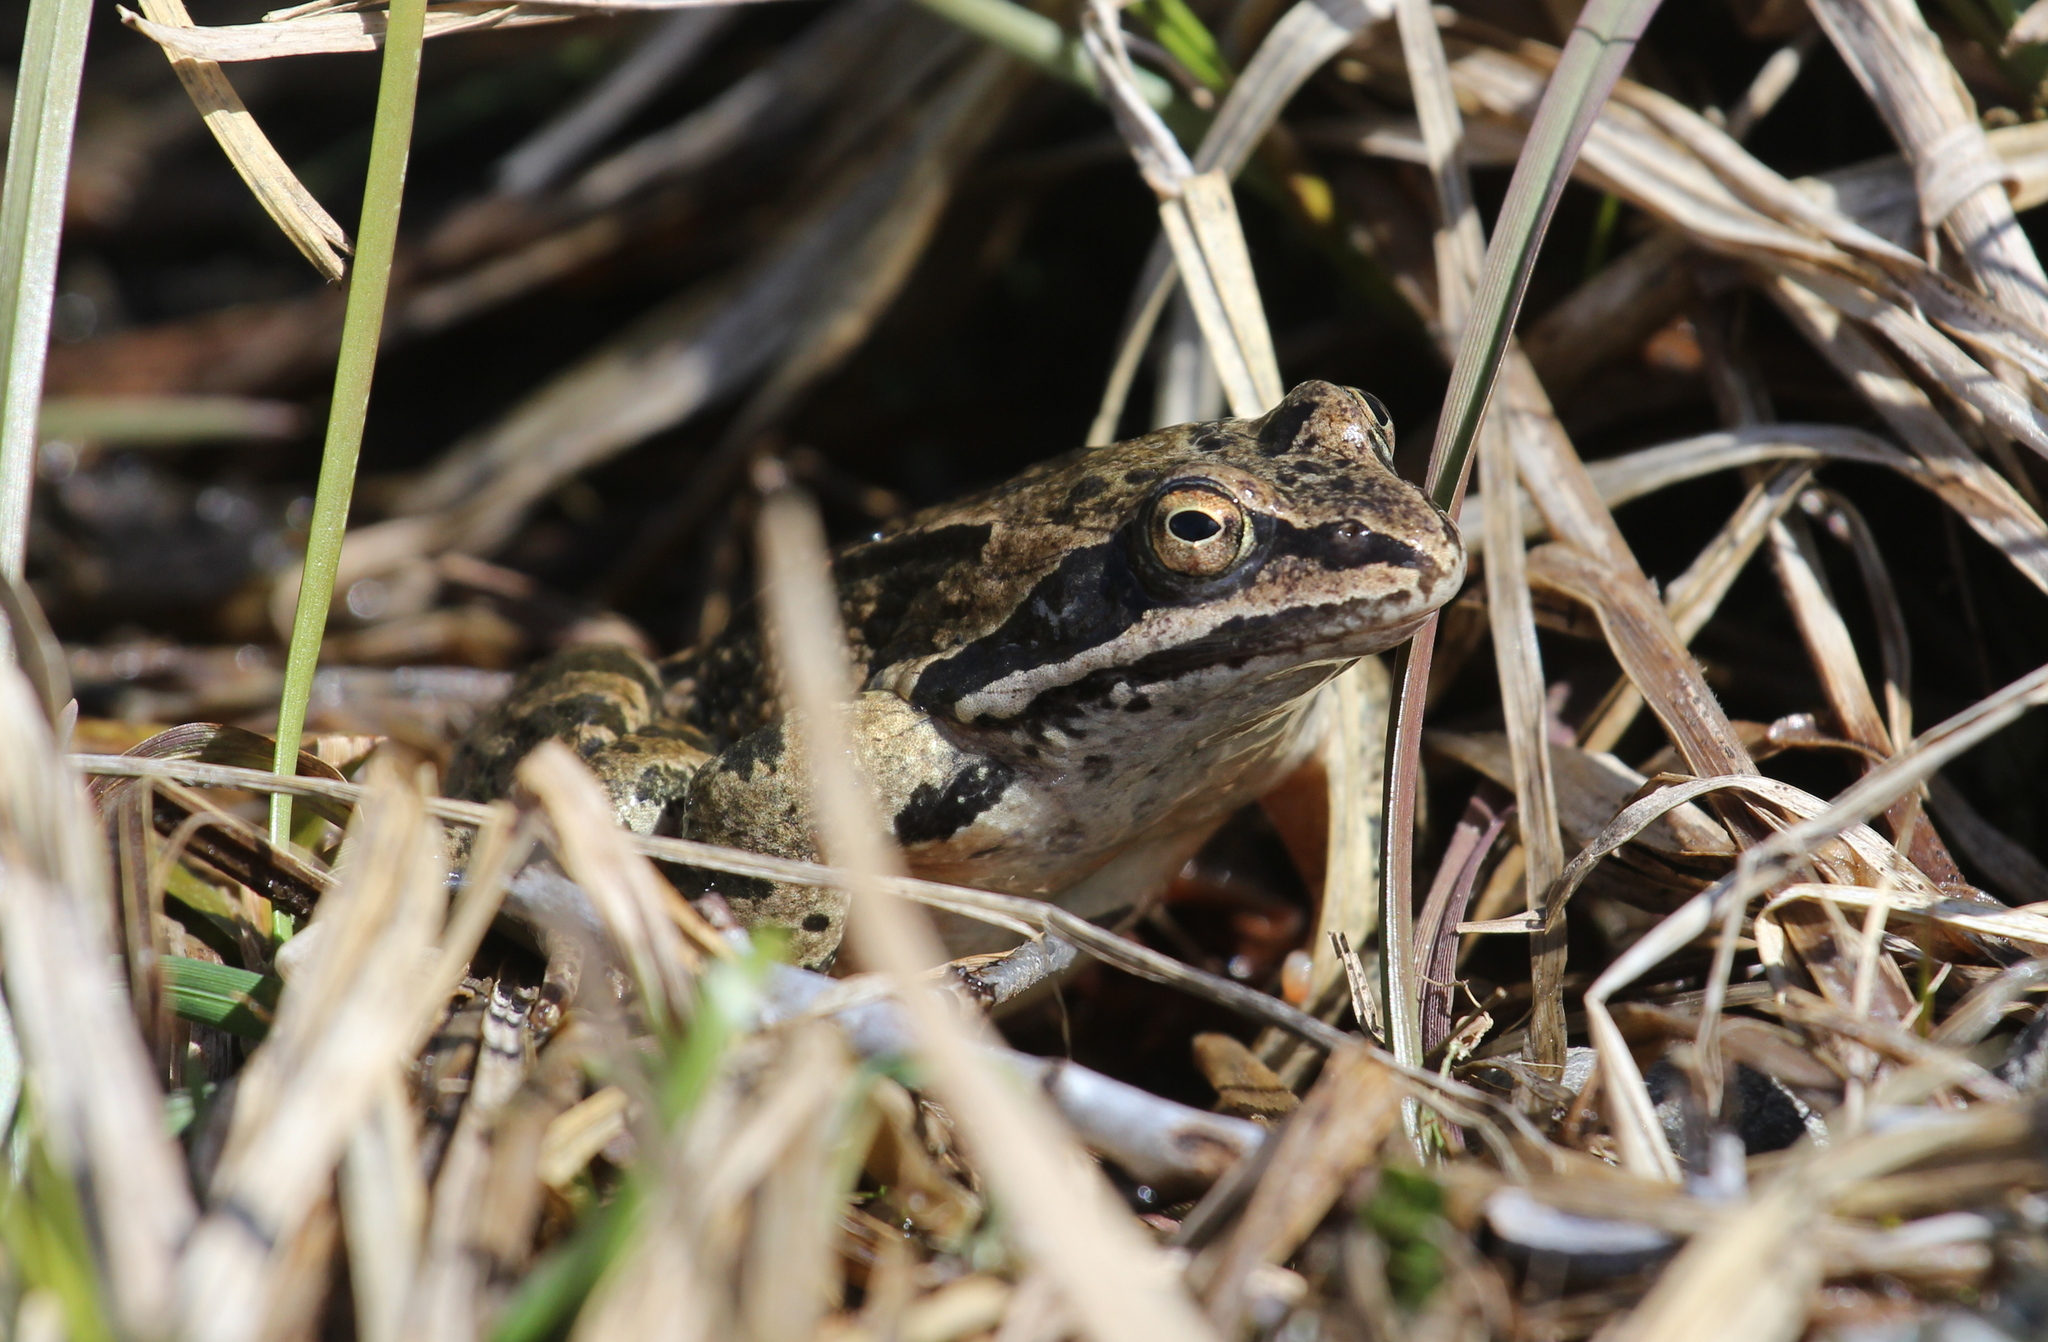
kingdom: Animalia
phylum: Chordata
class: Amphibia
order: Anura
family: Ranidae
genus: Rana
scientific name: Rana macrocnemis
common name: Banded frog
